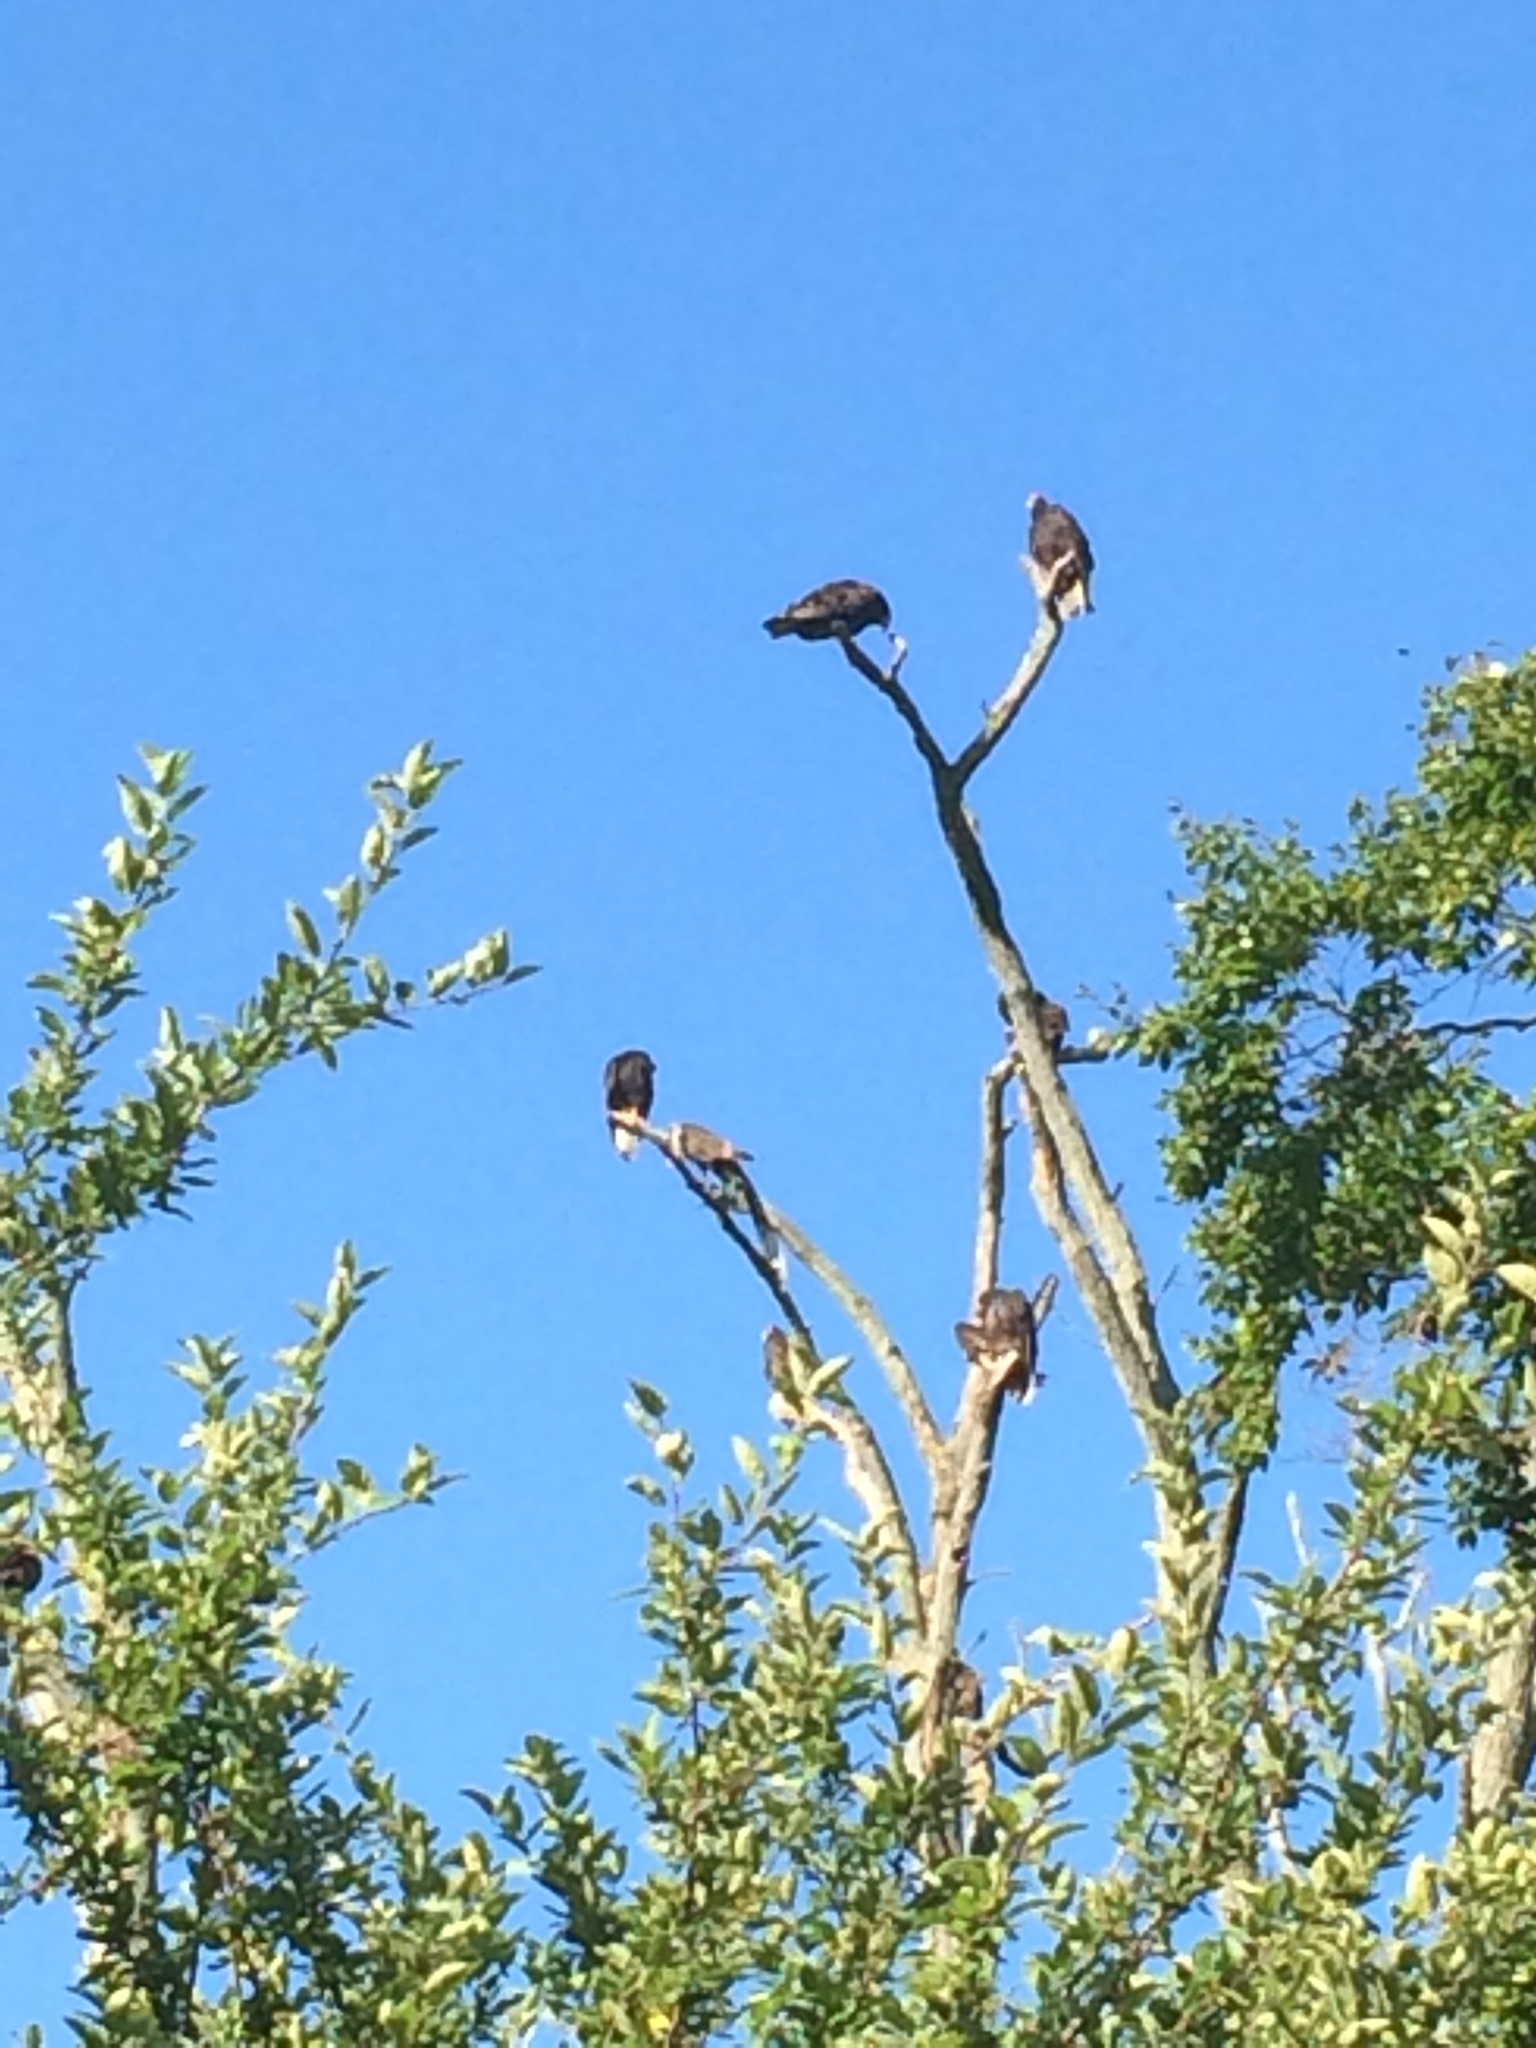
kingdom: Animalia
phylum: Chordata
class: Aves
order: Accipitriformes
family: Cathartidae
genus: Cathartes
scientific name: Cathartes aura
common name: Turkey vulture
